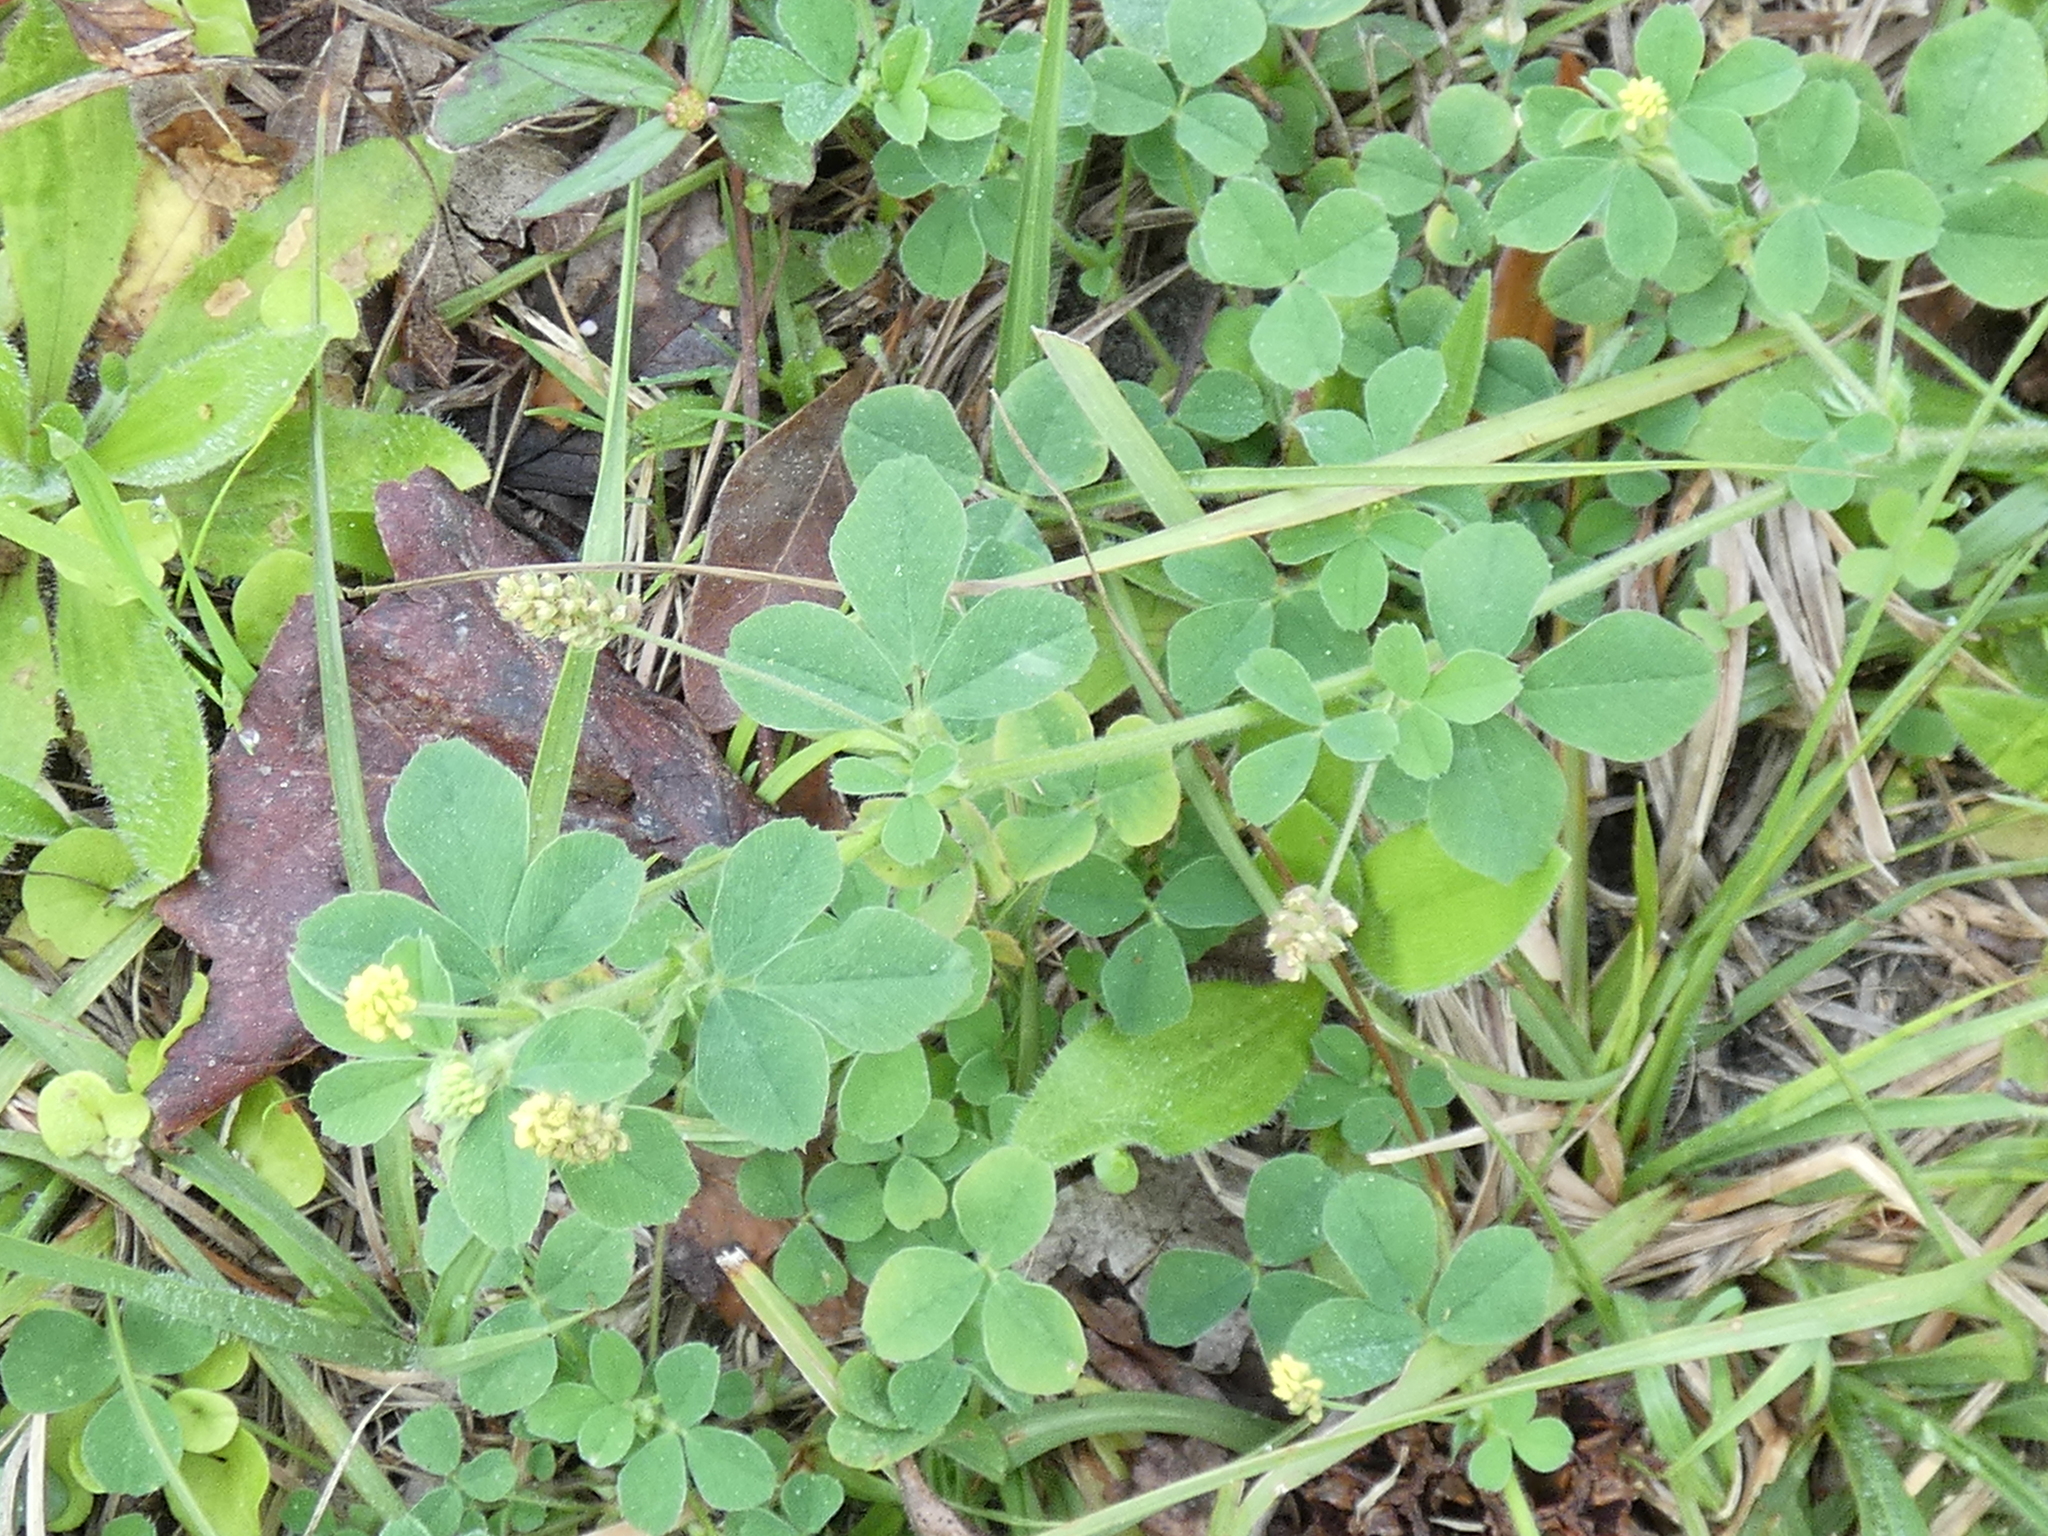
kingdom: Plantae
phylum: Tracheophyta
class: Magnoliopsida
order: Fabales
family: Fabaceae
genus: Medicago
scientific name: Medicago lupulina
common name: Black medick
